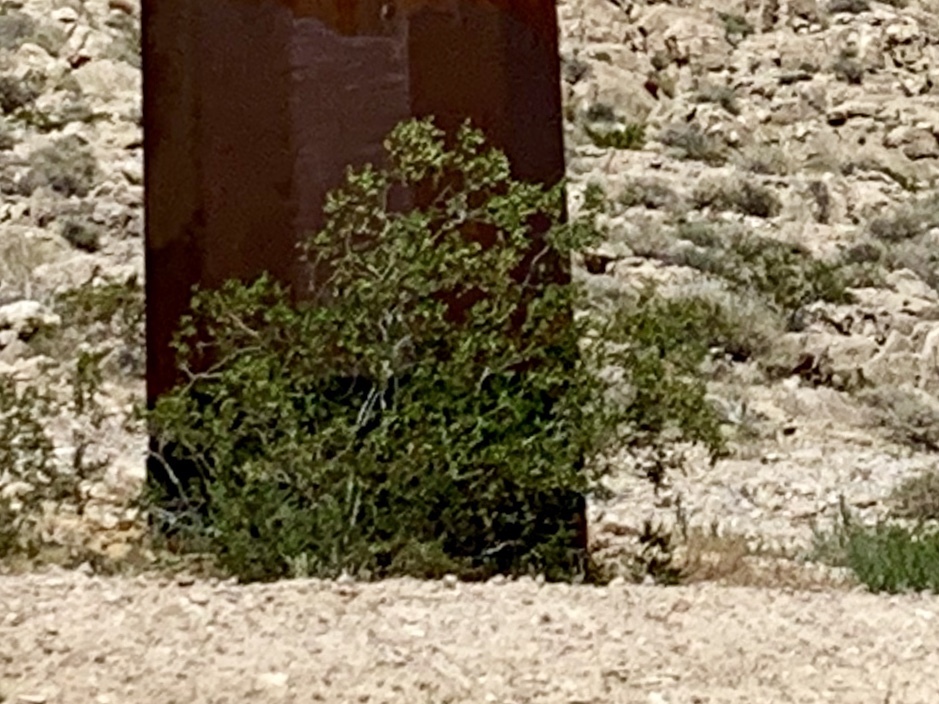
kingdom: Plantae
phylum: Tracheophyta
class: Magnoliopsida
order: Zygophyllales
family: Zygophyllaceae
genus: Larrea
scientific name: Larrea tridentata
